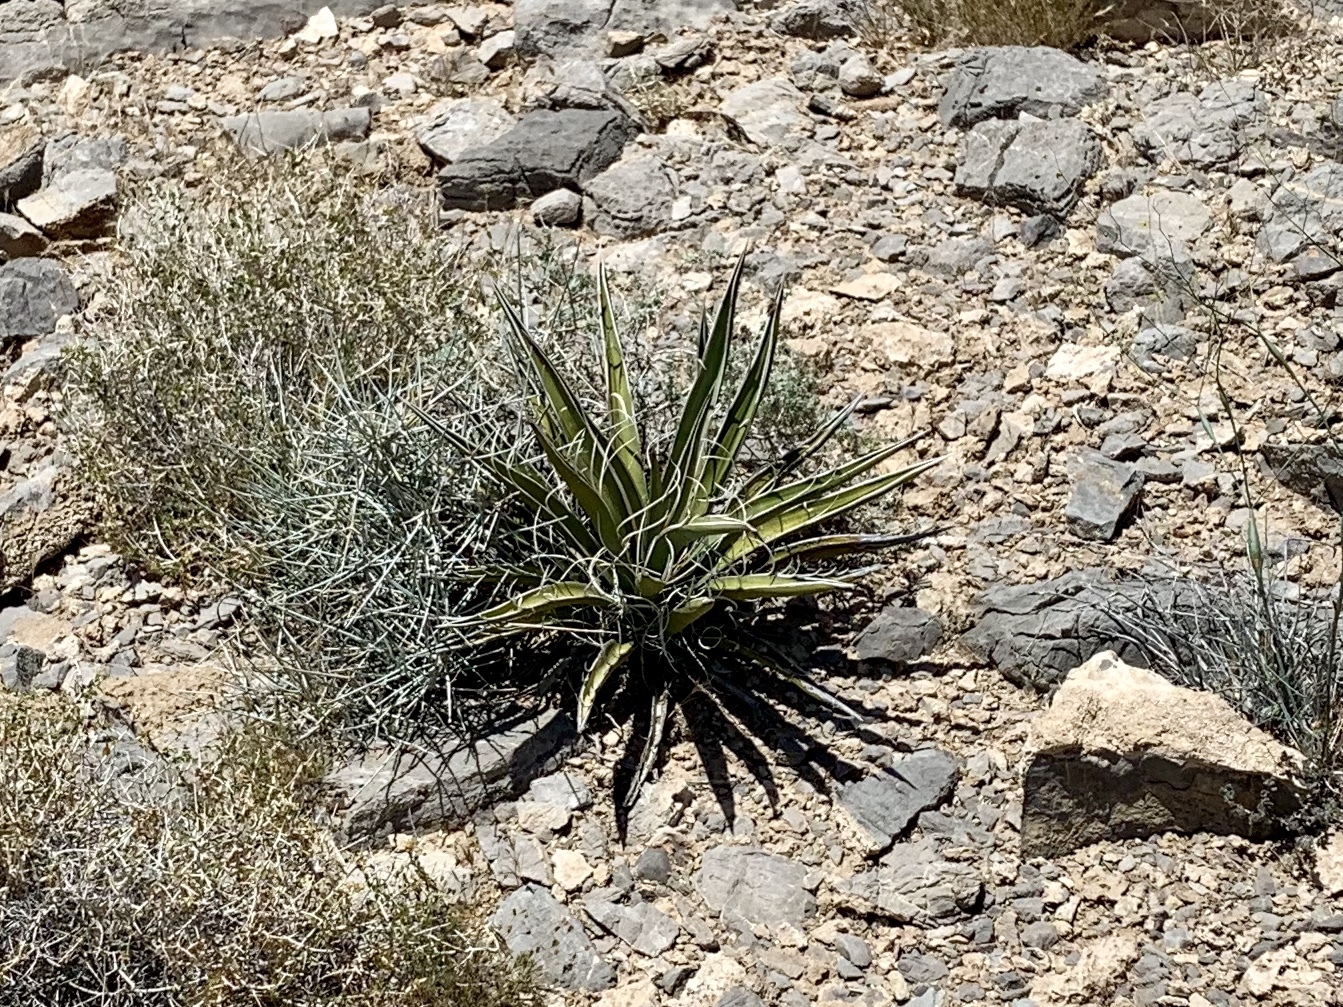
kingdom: Plantae
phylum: Tracheophyta
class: Liliopsida
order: Asparagales
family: Asparagaceae
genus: Yucca
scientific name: Yucca baccata
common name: Banana yucca
